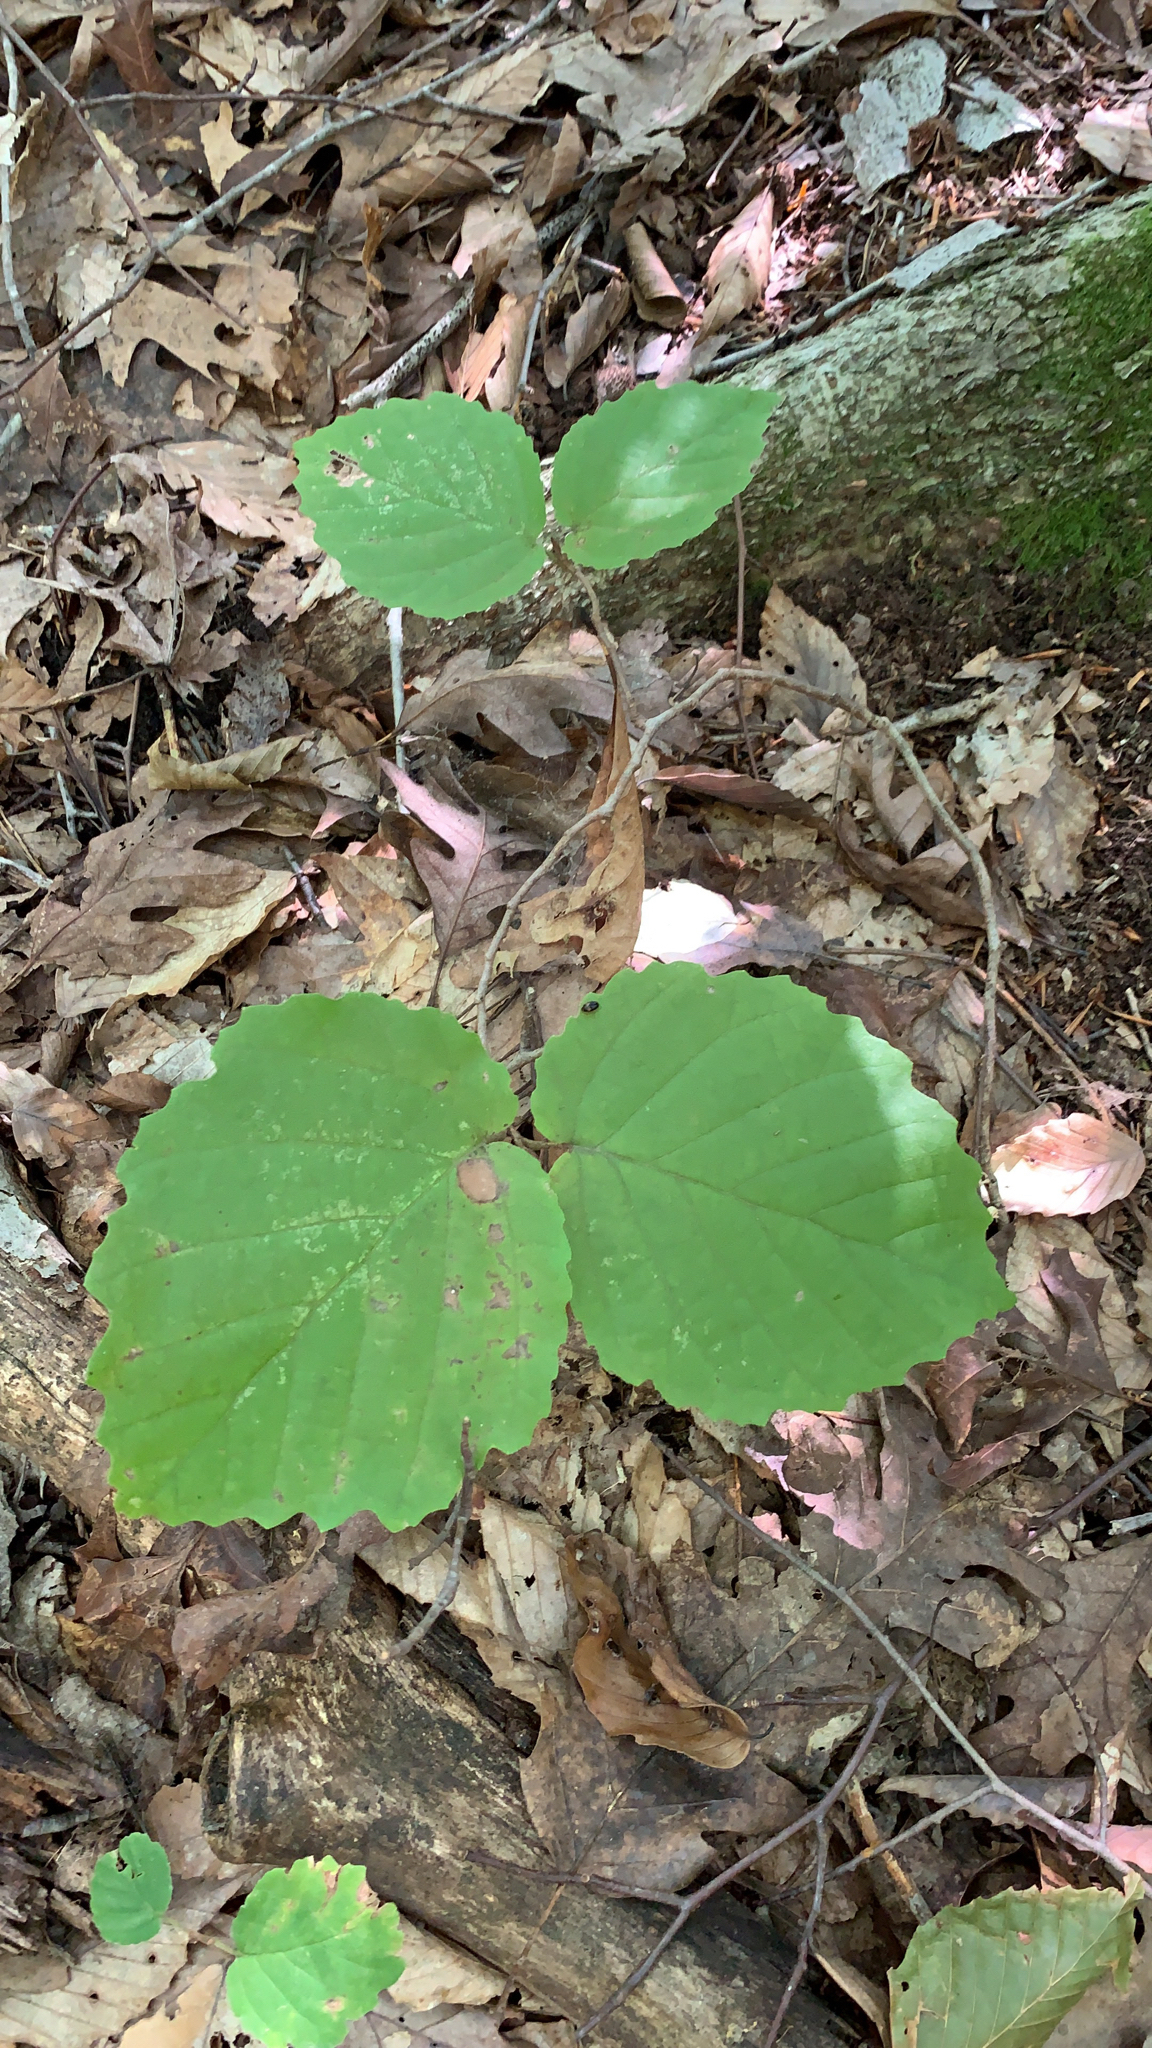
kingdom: Plantae
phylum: Tracheophyta
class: Magnoliopsida
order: Saxifragales
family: Hamamelidaceae
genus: Hamamelis
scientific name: Hamamelis virginiana
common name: Witch-hazel
